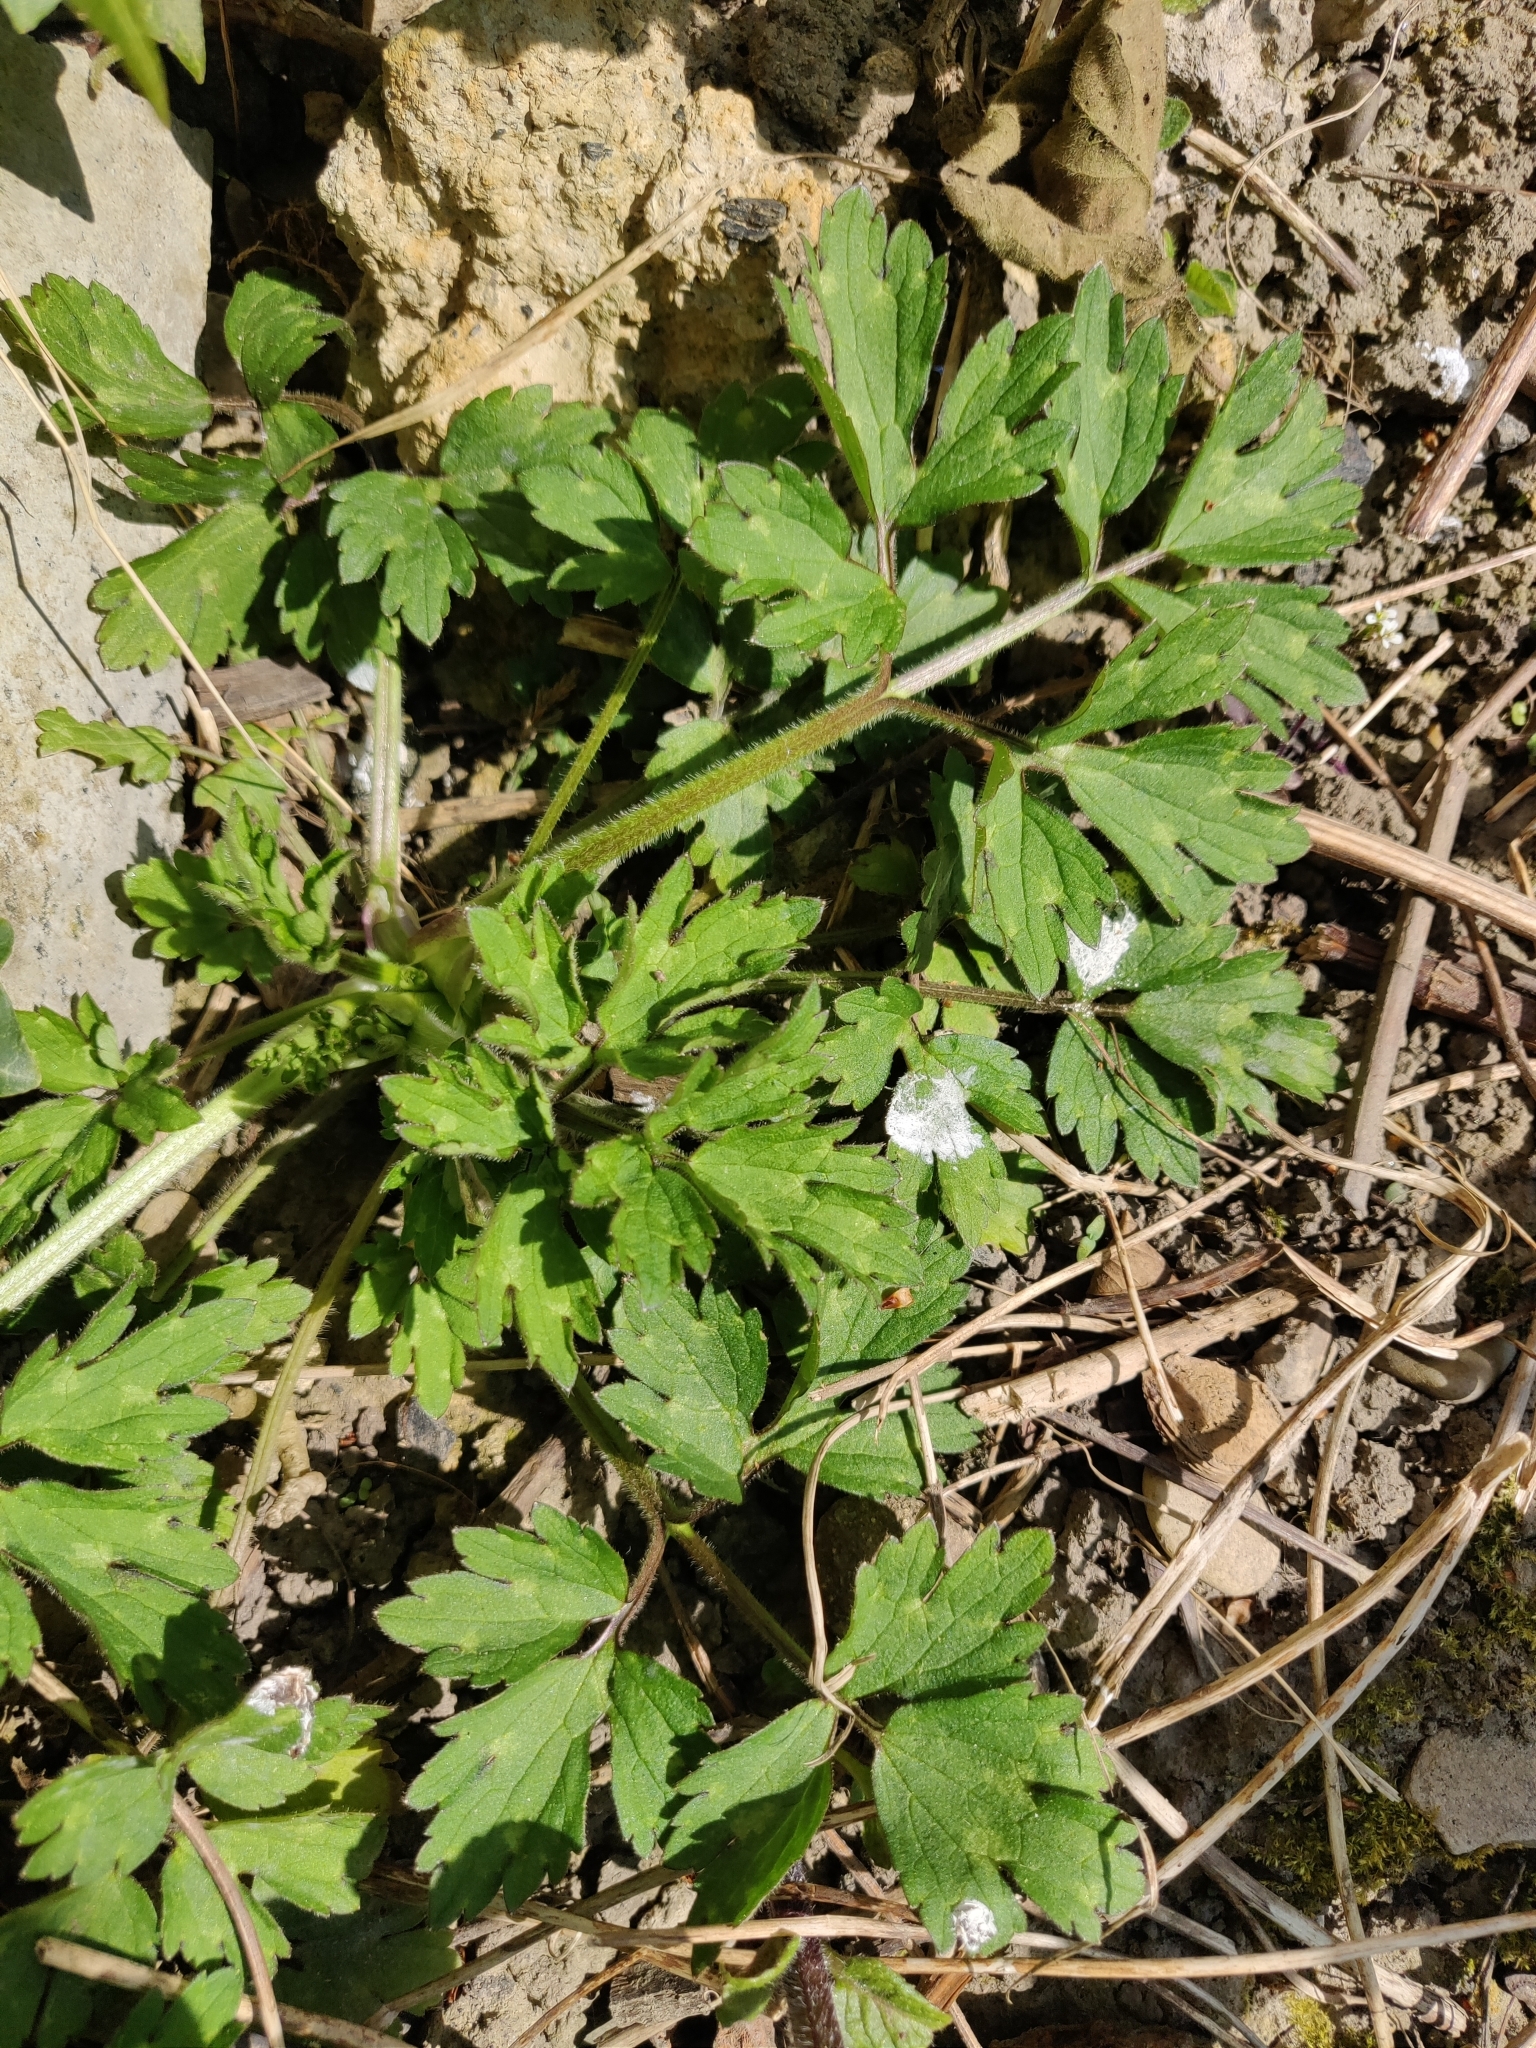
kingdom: Plantae
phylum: Tracheophyta
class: Magnoliopsida
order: Ranunculales
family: Ranunculaceae
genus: Ranunculus
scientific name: Ranunculus repens
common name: Creeping buttercup
